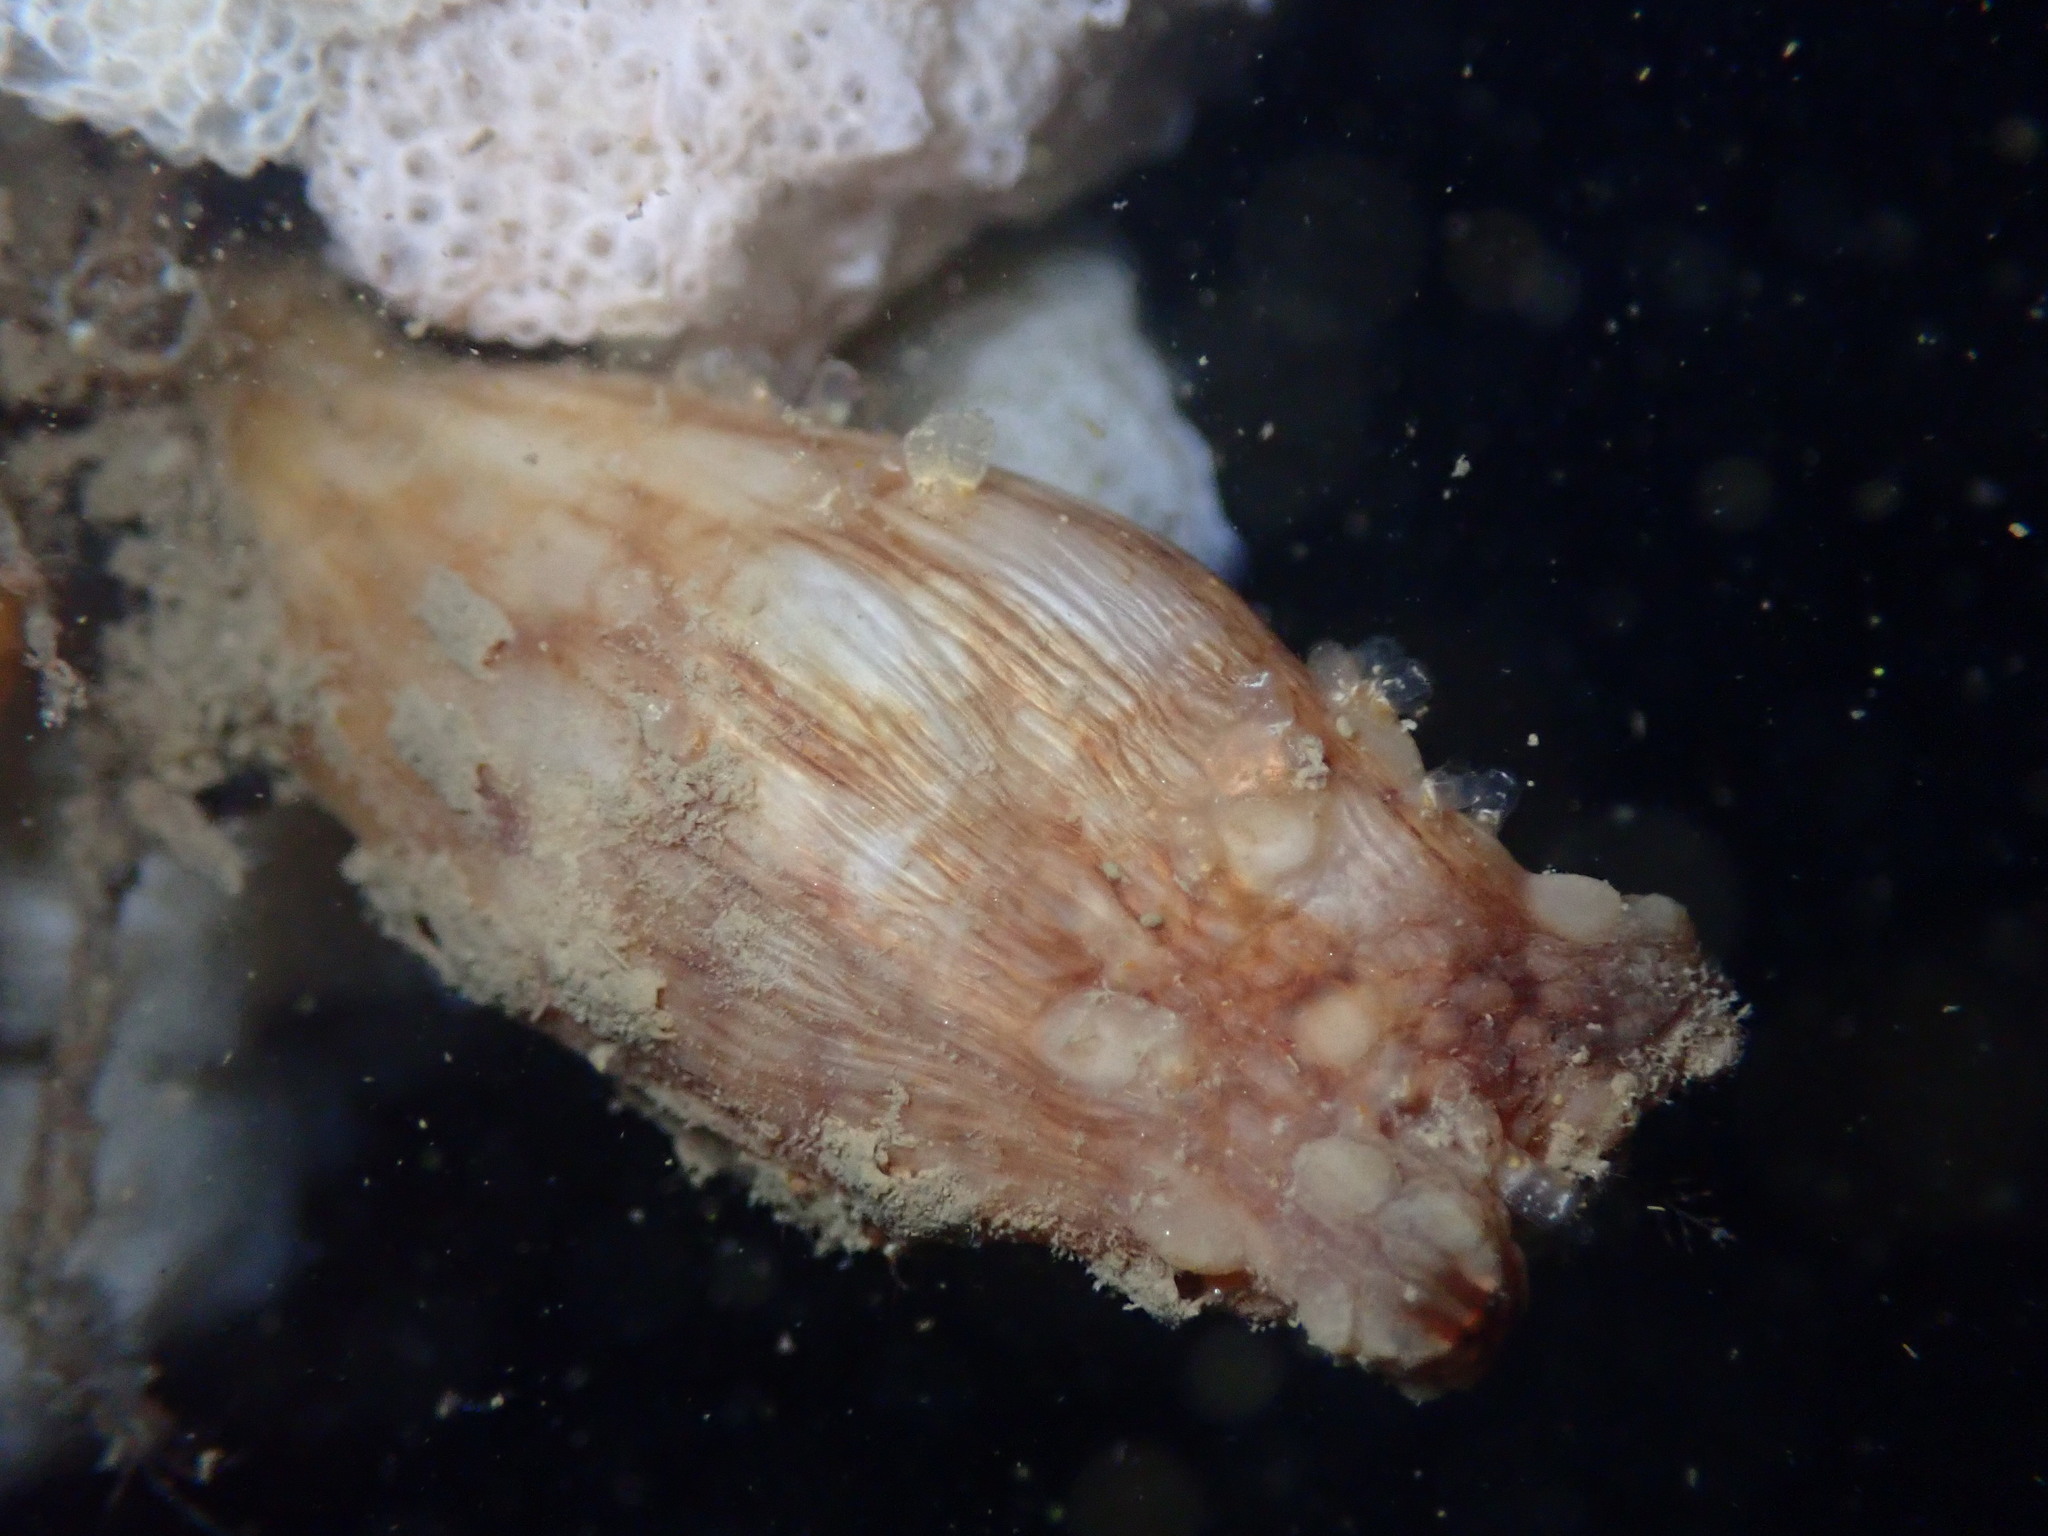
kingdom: Animalia
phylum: Chordata
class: Ascidiacea
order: Stolidobranchia
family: Styelidae
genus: Styela
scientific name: Styela clava
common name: Leathery sea squirt
